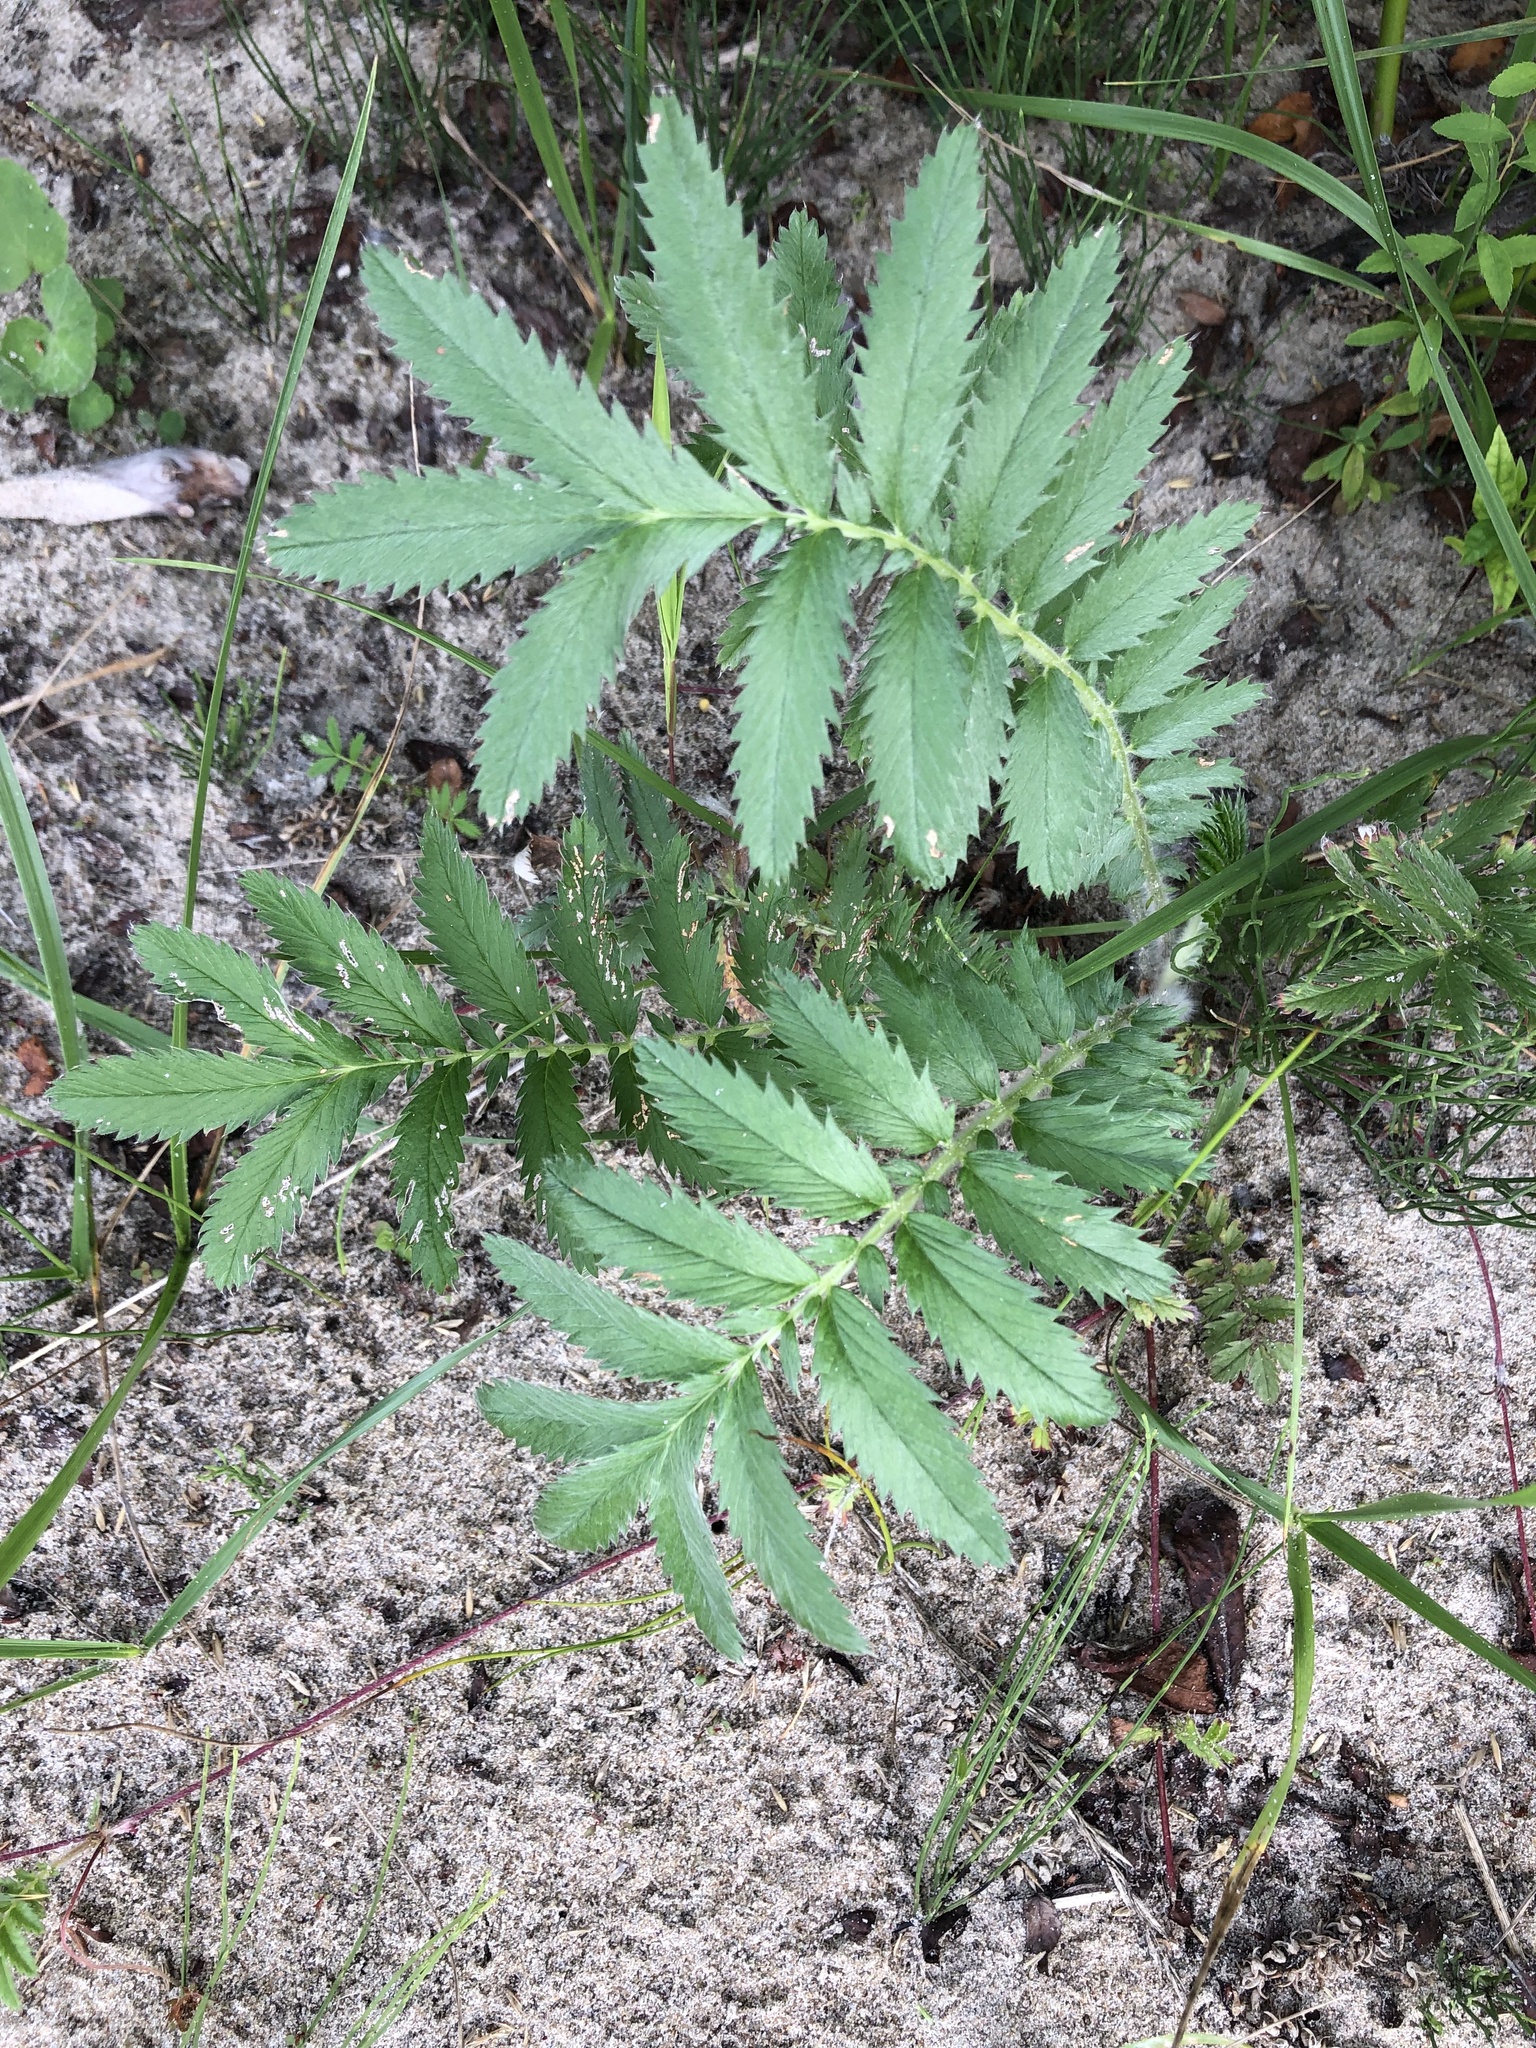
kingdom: Plantae
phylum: Tracheophyta
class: Magnoliopsida
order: Rosales
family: Rosaceae
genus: Argentina
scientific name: Argentina anserina
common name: Common silverweed
